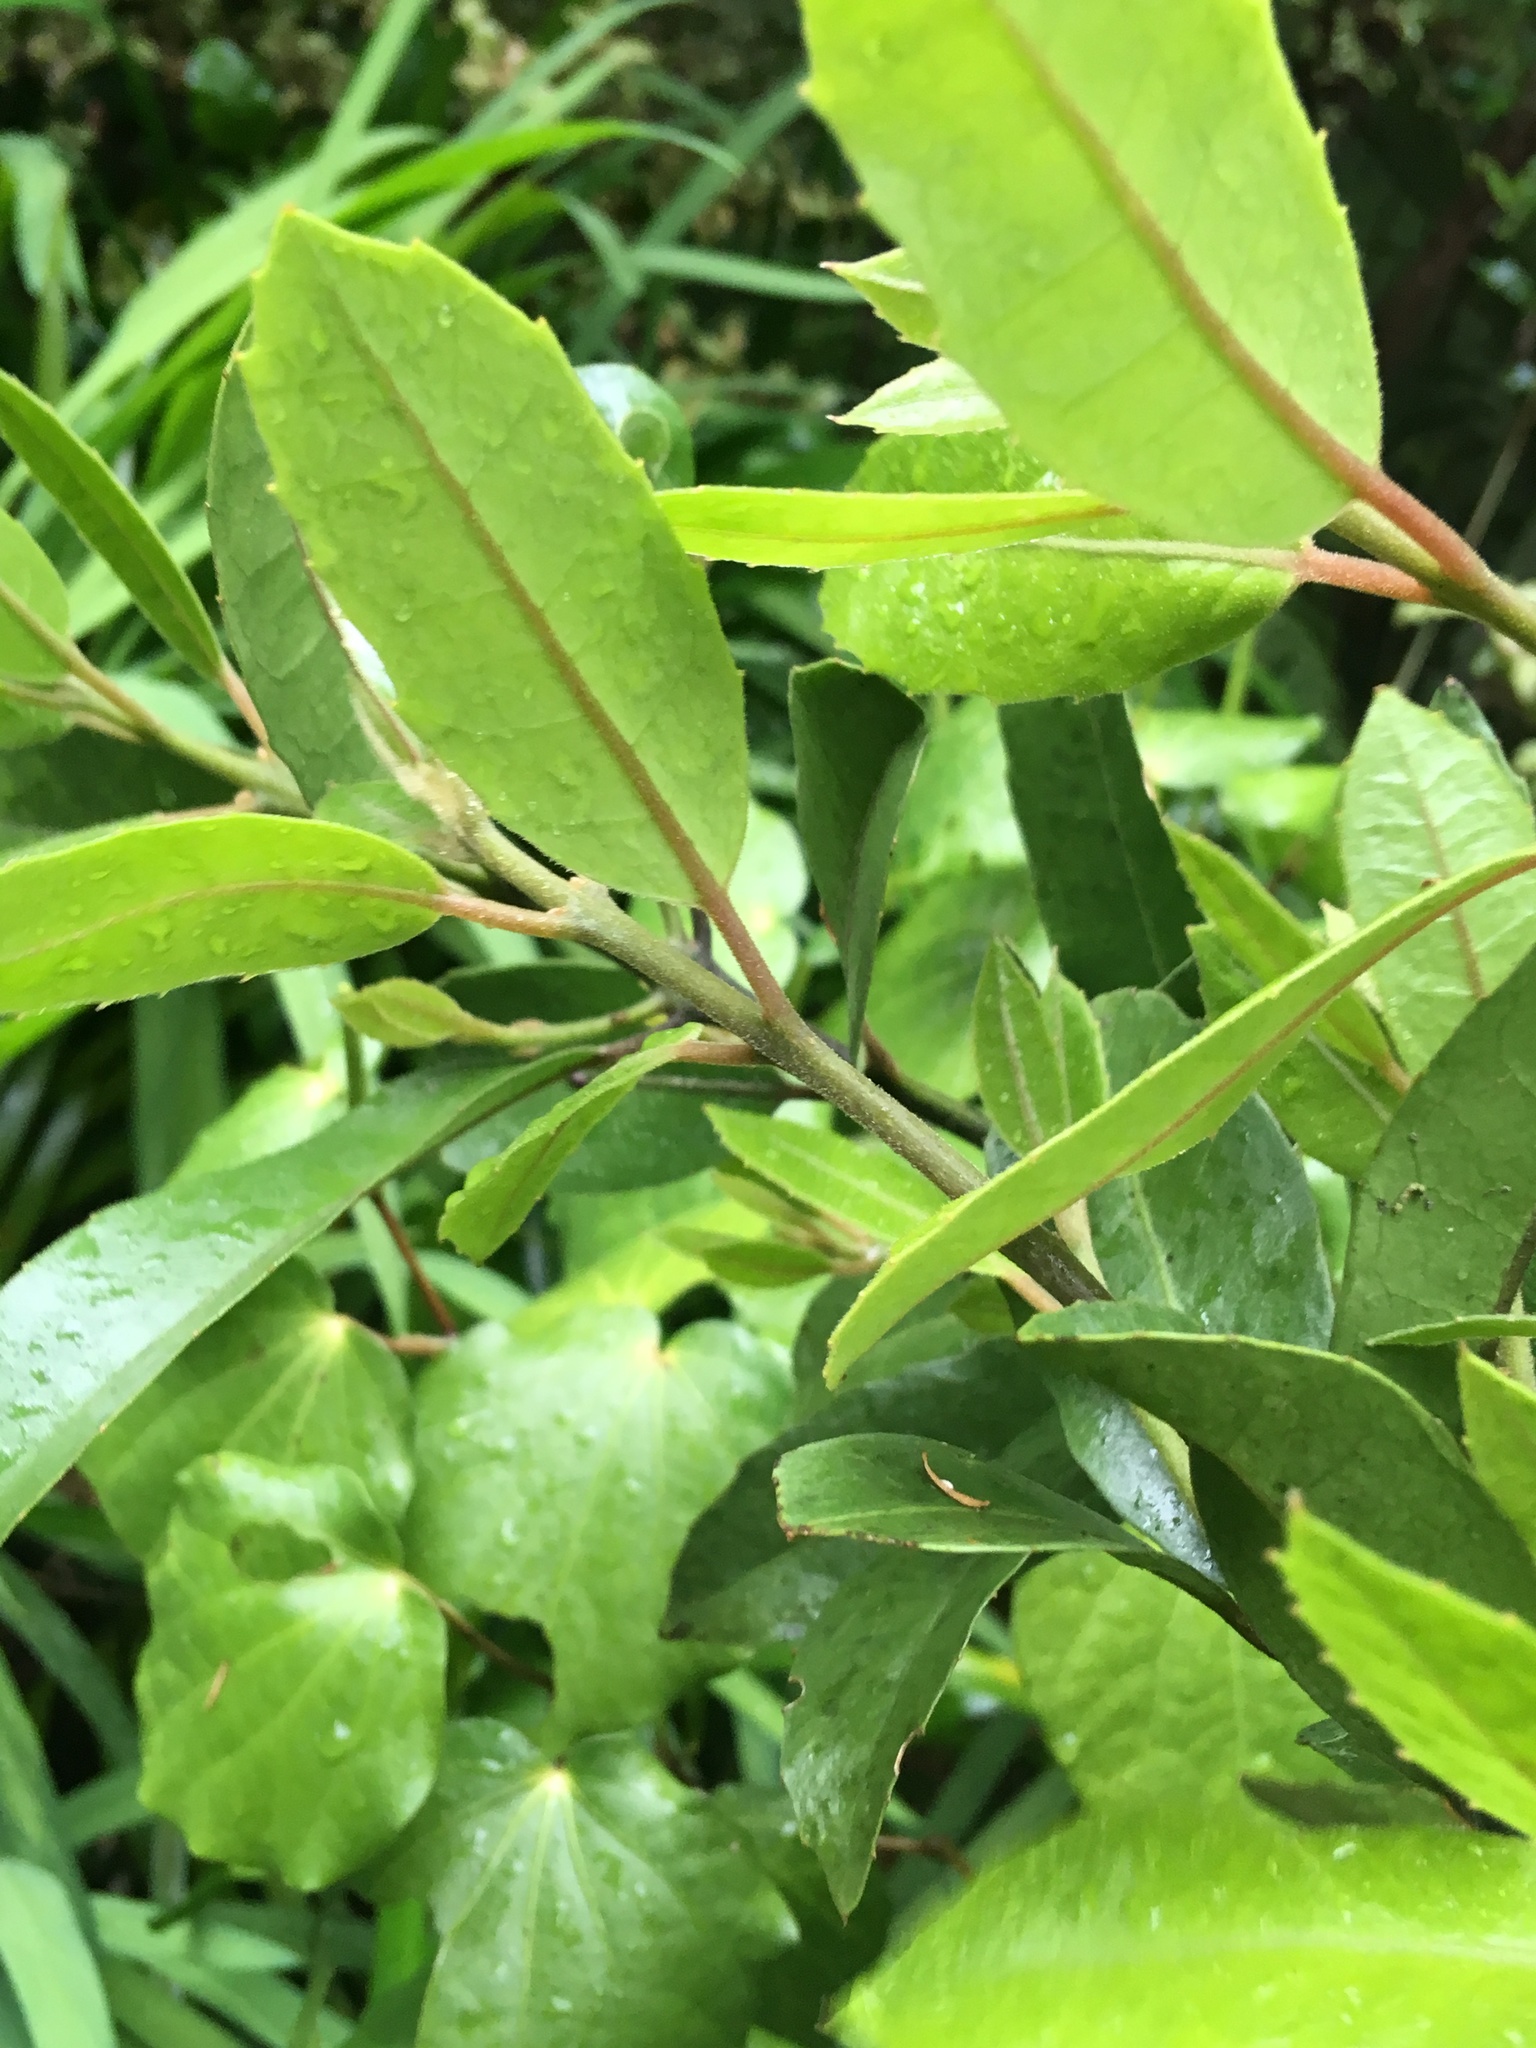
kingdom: Plantae
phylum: Tracheophyta
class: Magnoliopsida
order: Laurales
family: Monimiaceae
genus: Hedycarya
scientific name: Hedycarya arborea
